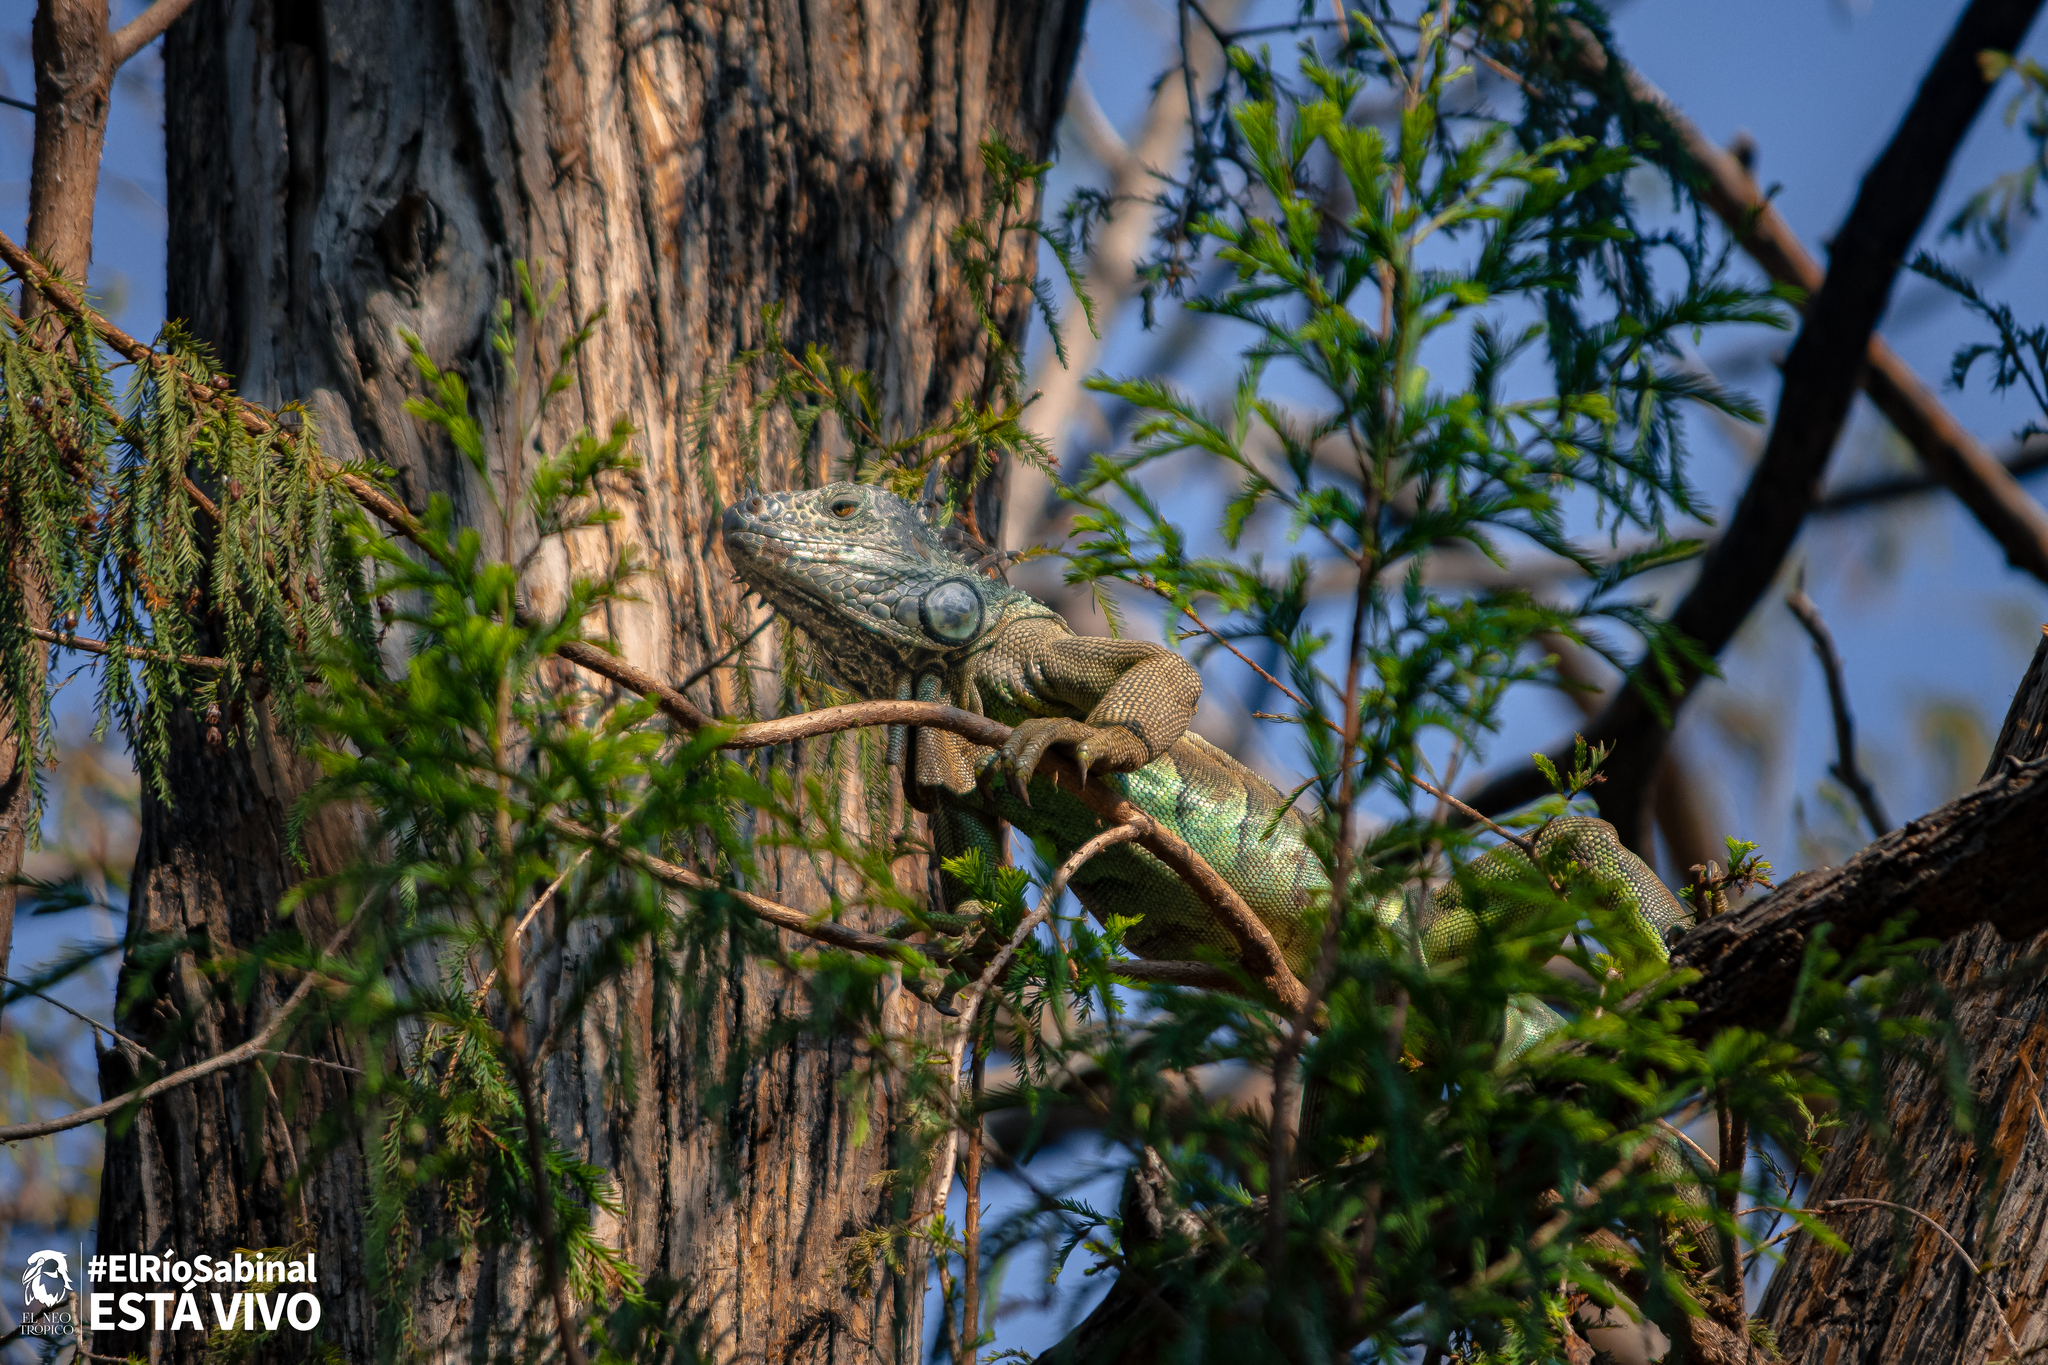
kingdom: Animalia
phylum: Chordata
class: Squamata
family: Iguanidae
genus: Iguana
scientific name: Iguana iguana
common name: Green iguana
